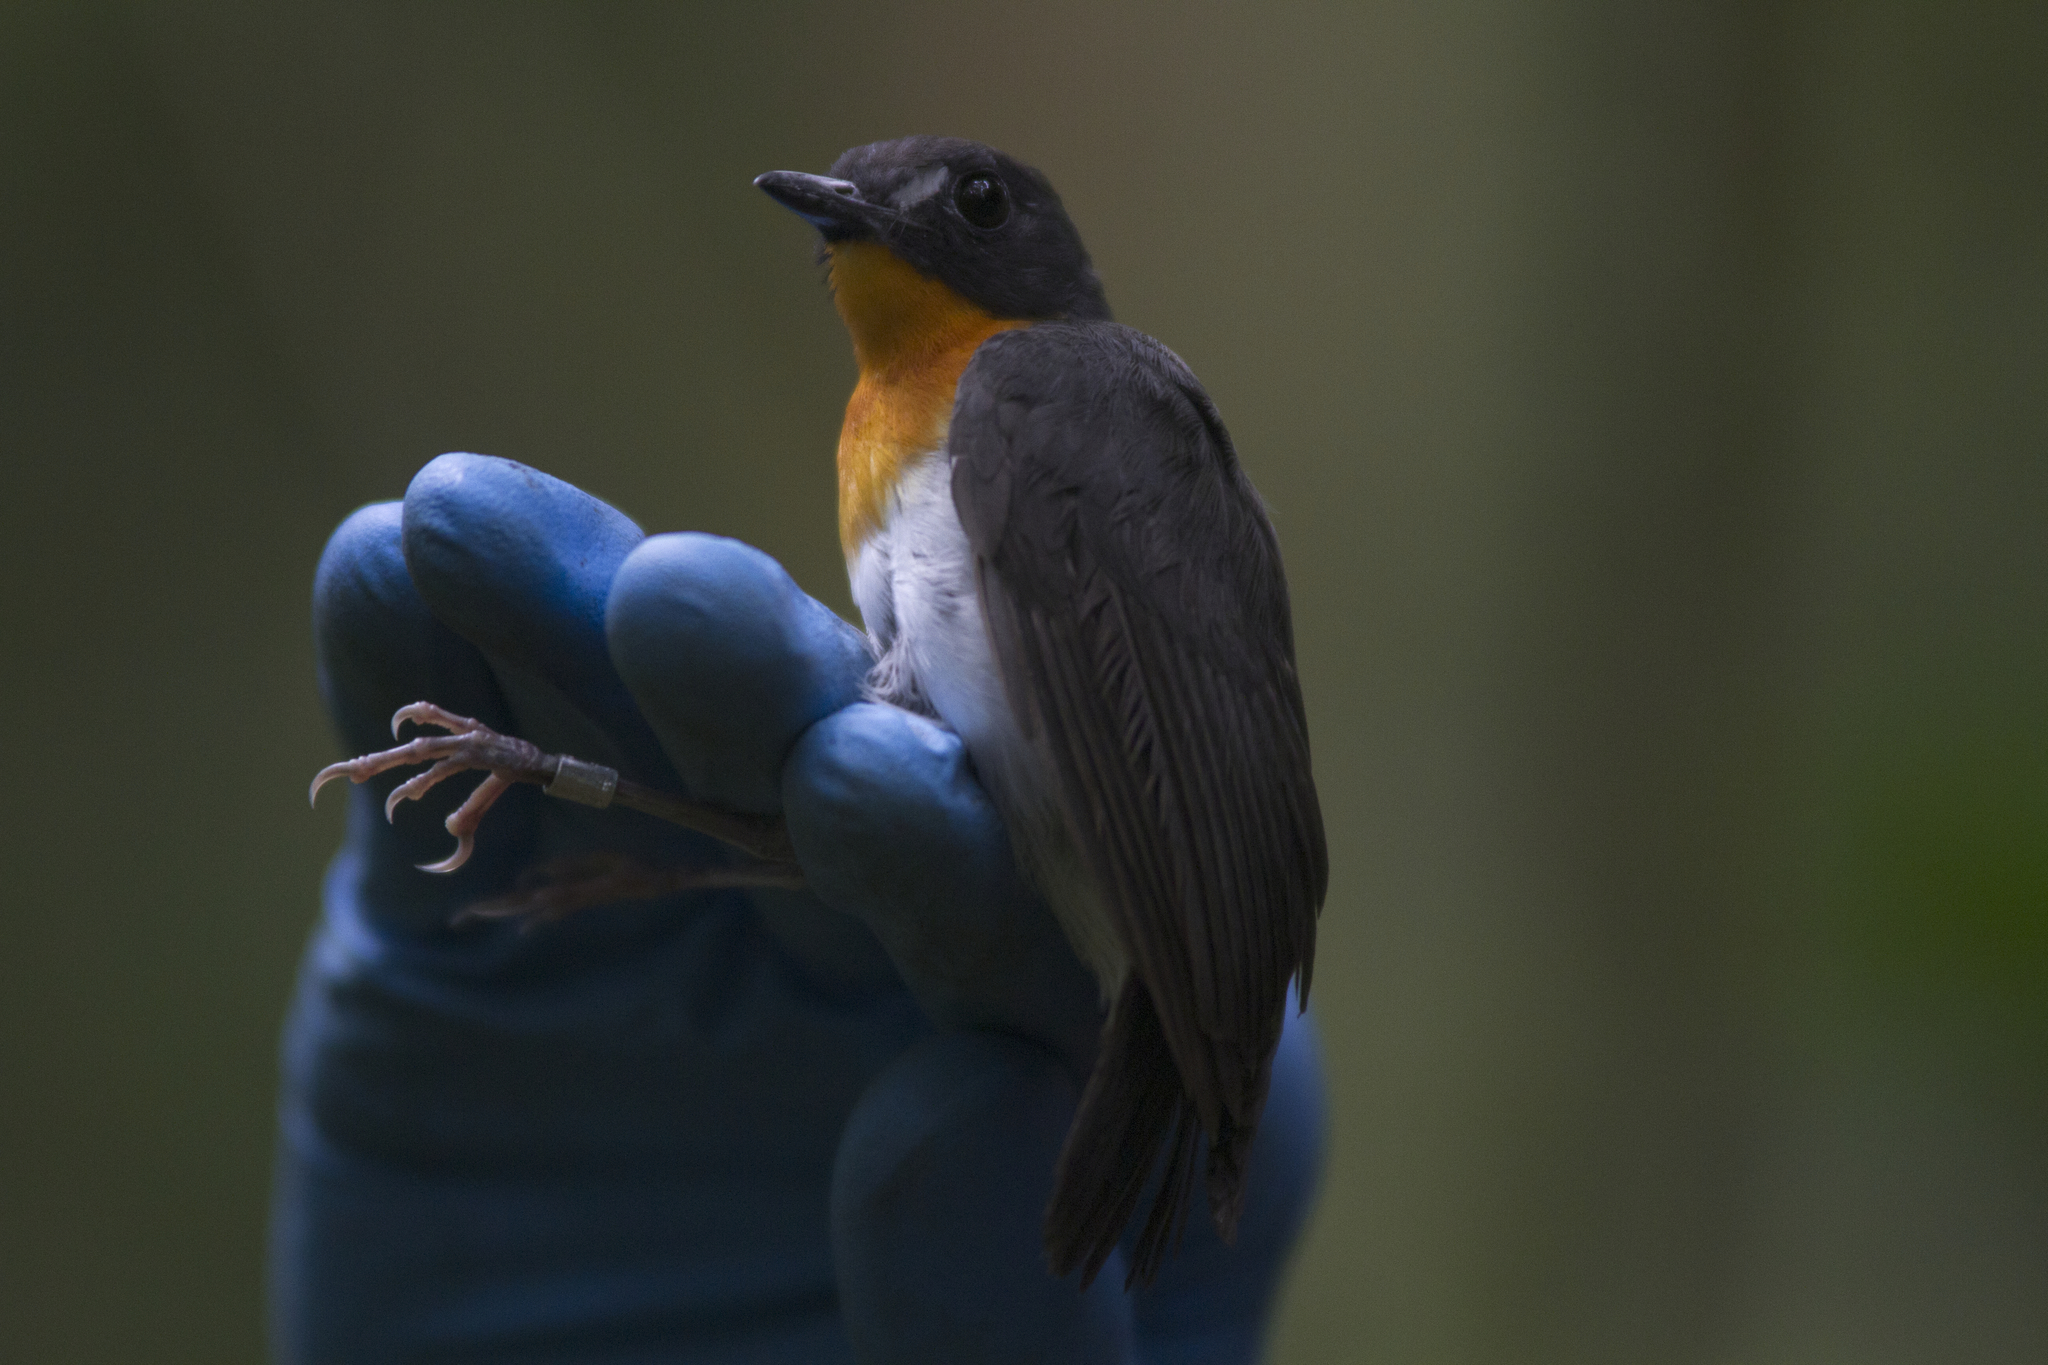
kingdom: Animalia
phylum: Chordata
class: Aves
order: Passeriformes
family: Muscicapidae
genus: Stiphrornis
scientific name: Stiphrornis erythrothorax
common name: Forest robin
